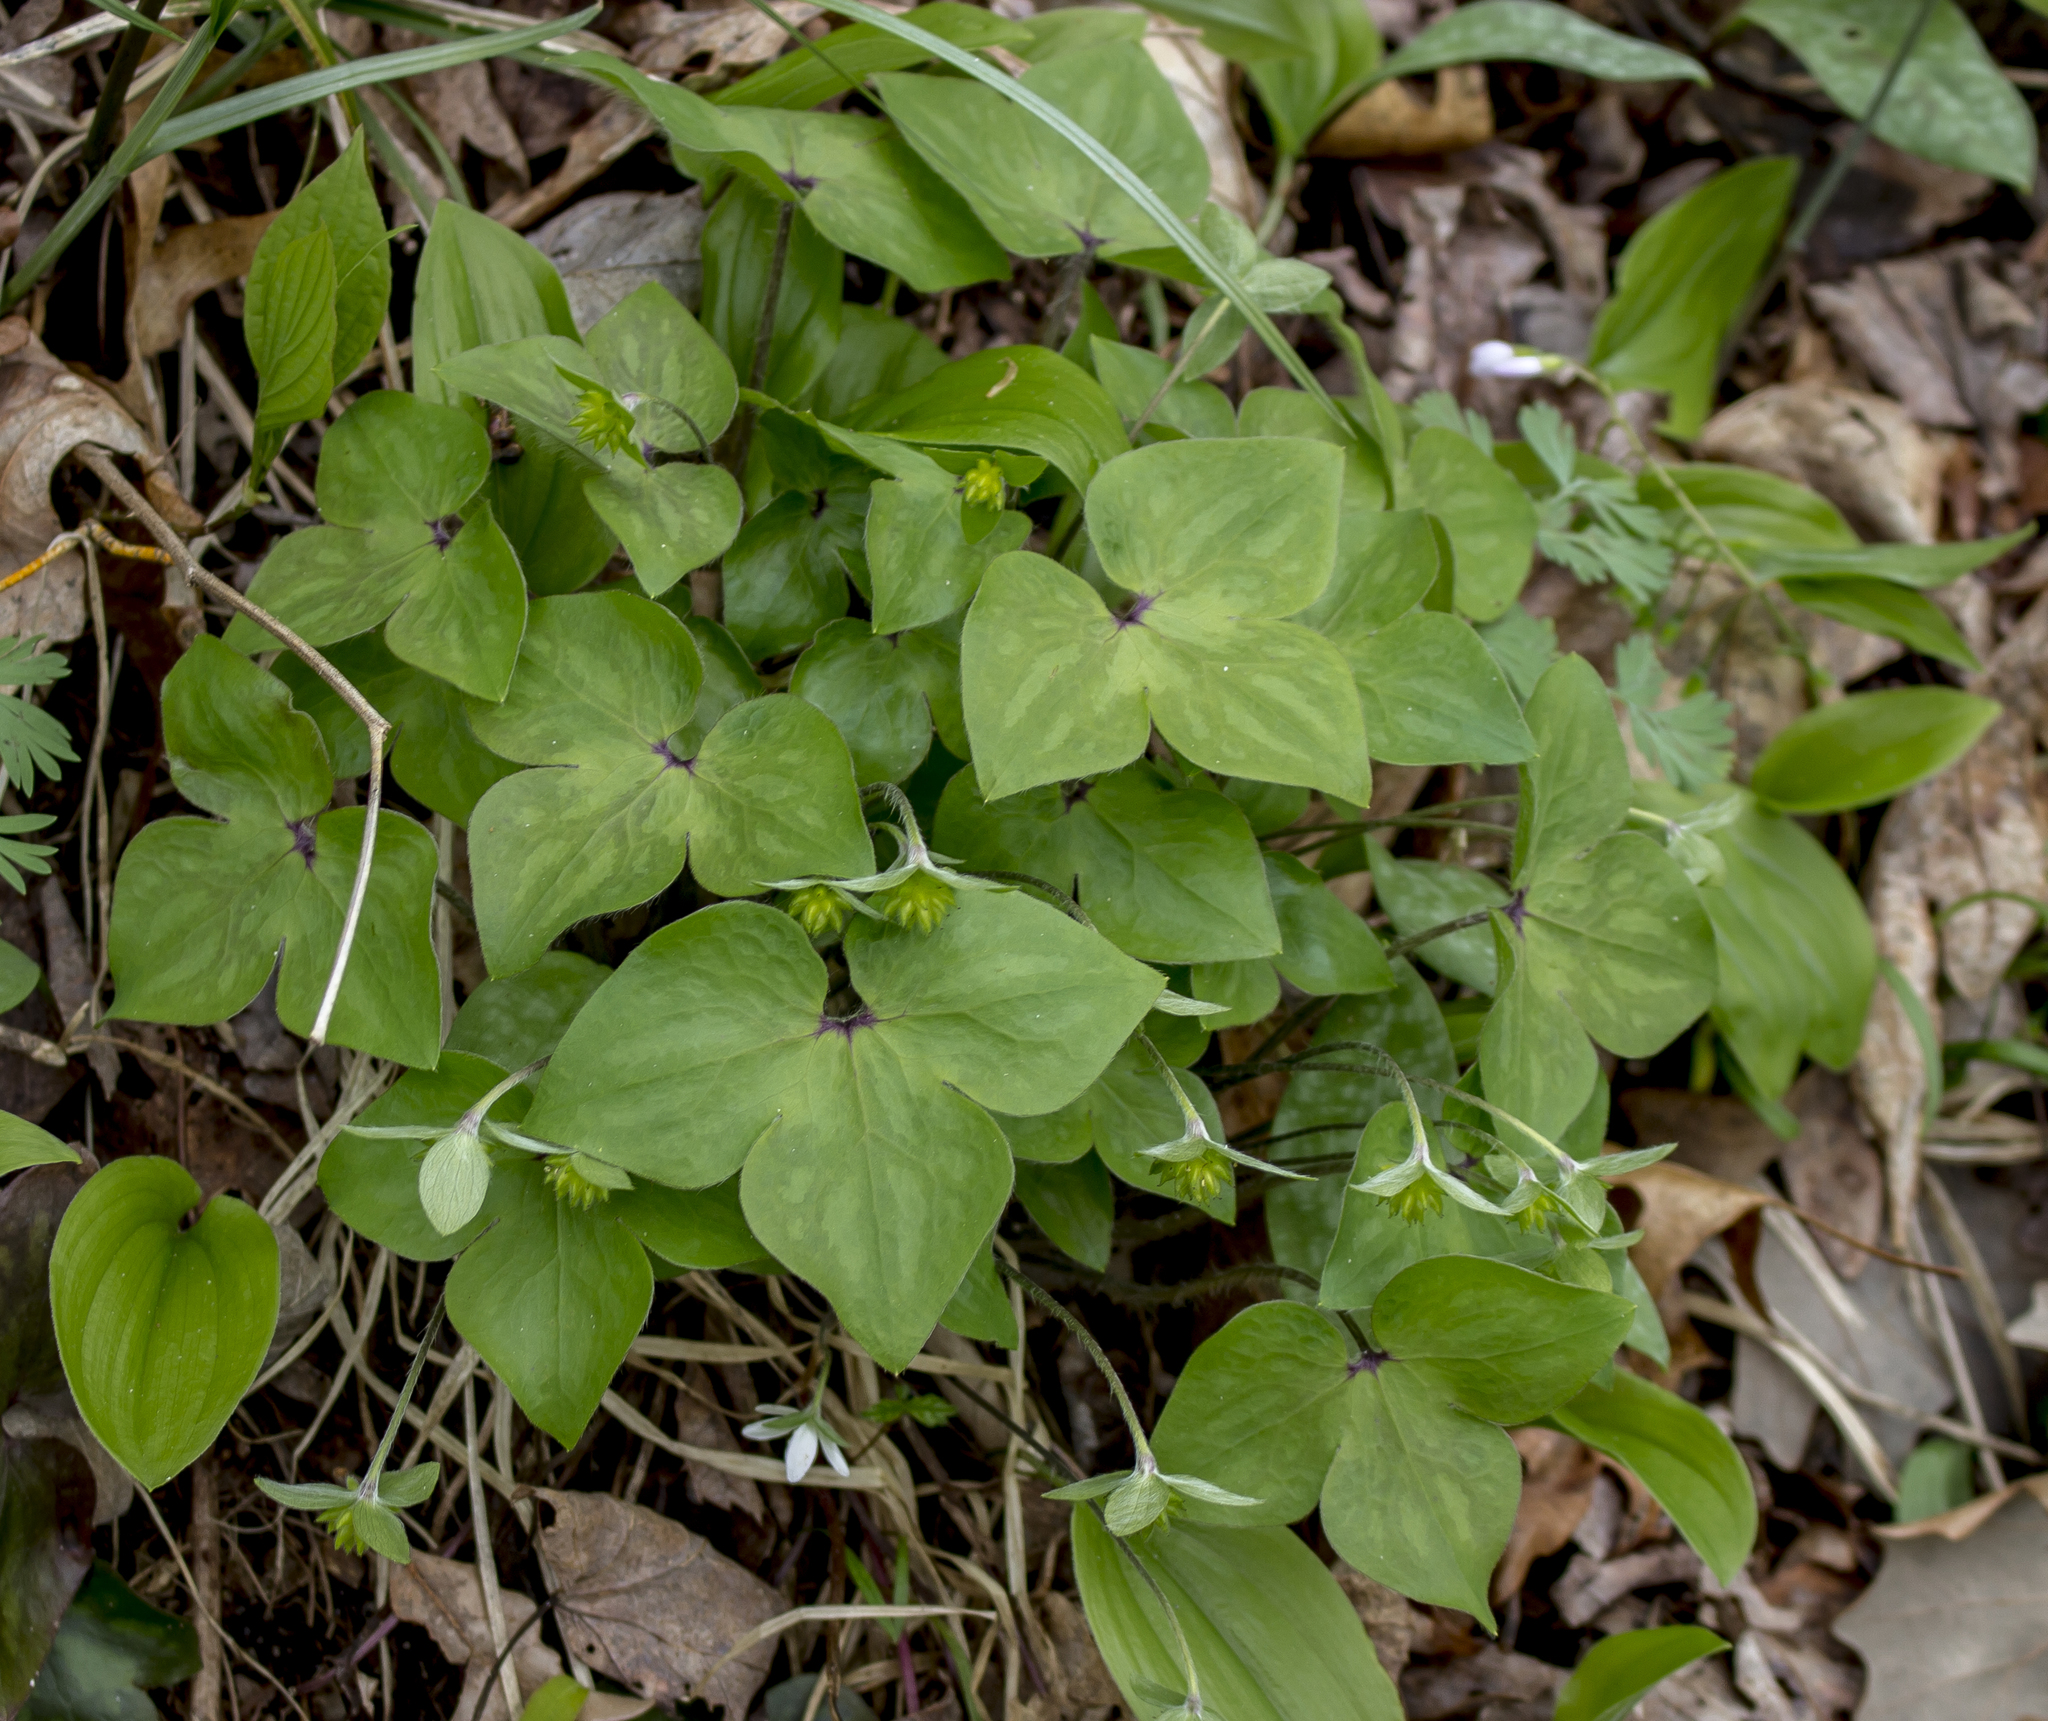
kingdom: Plantae
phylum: Tracheophyta
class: Magnoliopsida
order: Ranunculales
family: Ranunculaceae
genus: Hepatica
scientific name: Hepatica acutiloba
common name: Sharp-lobed hepatica
